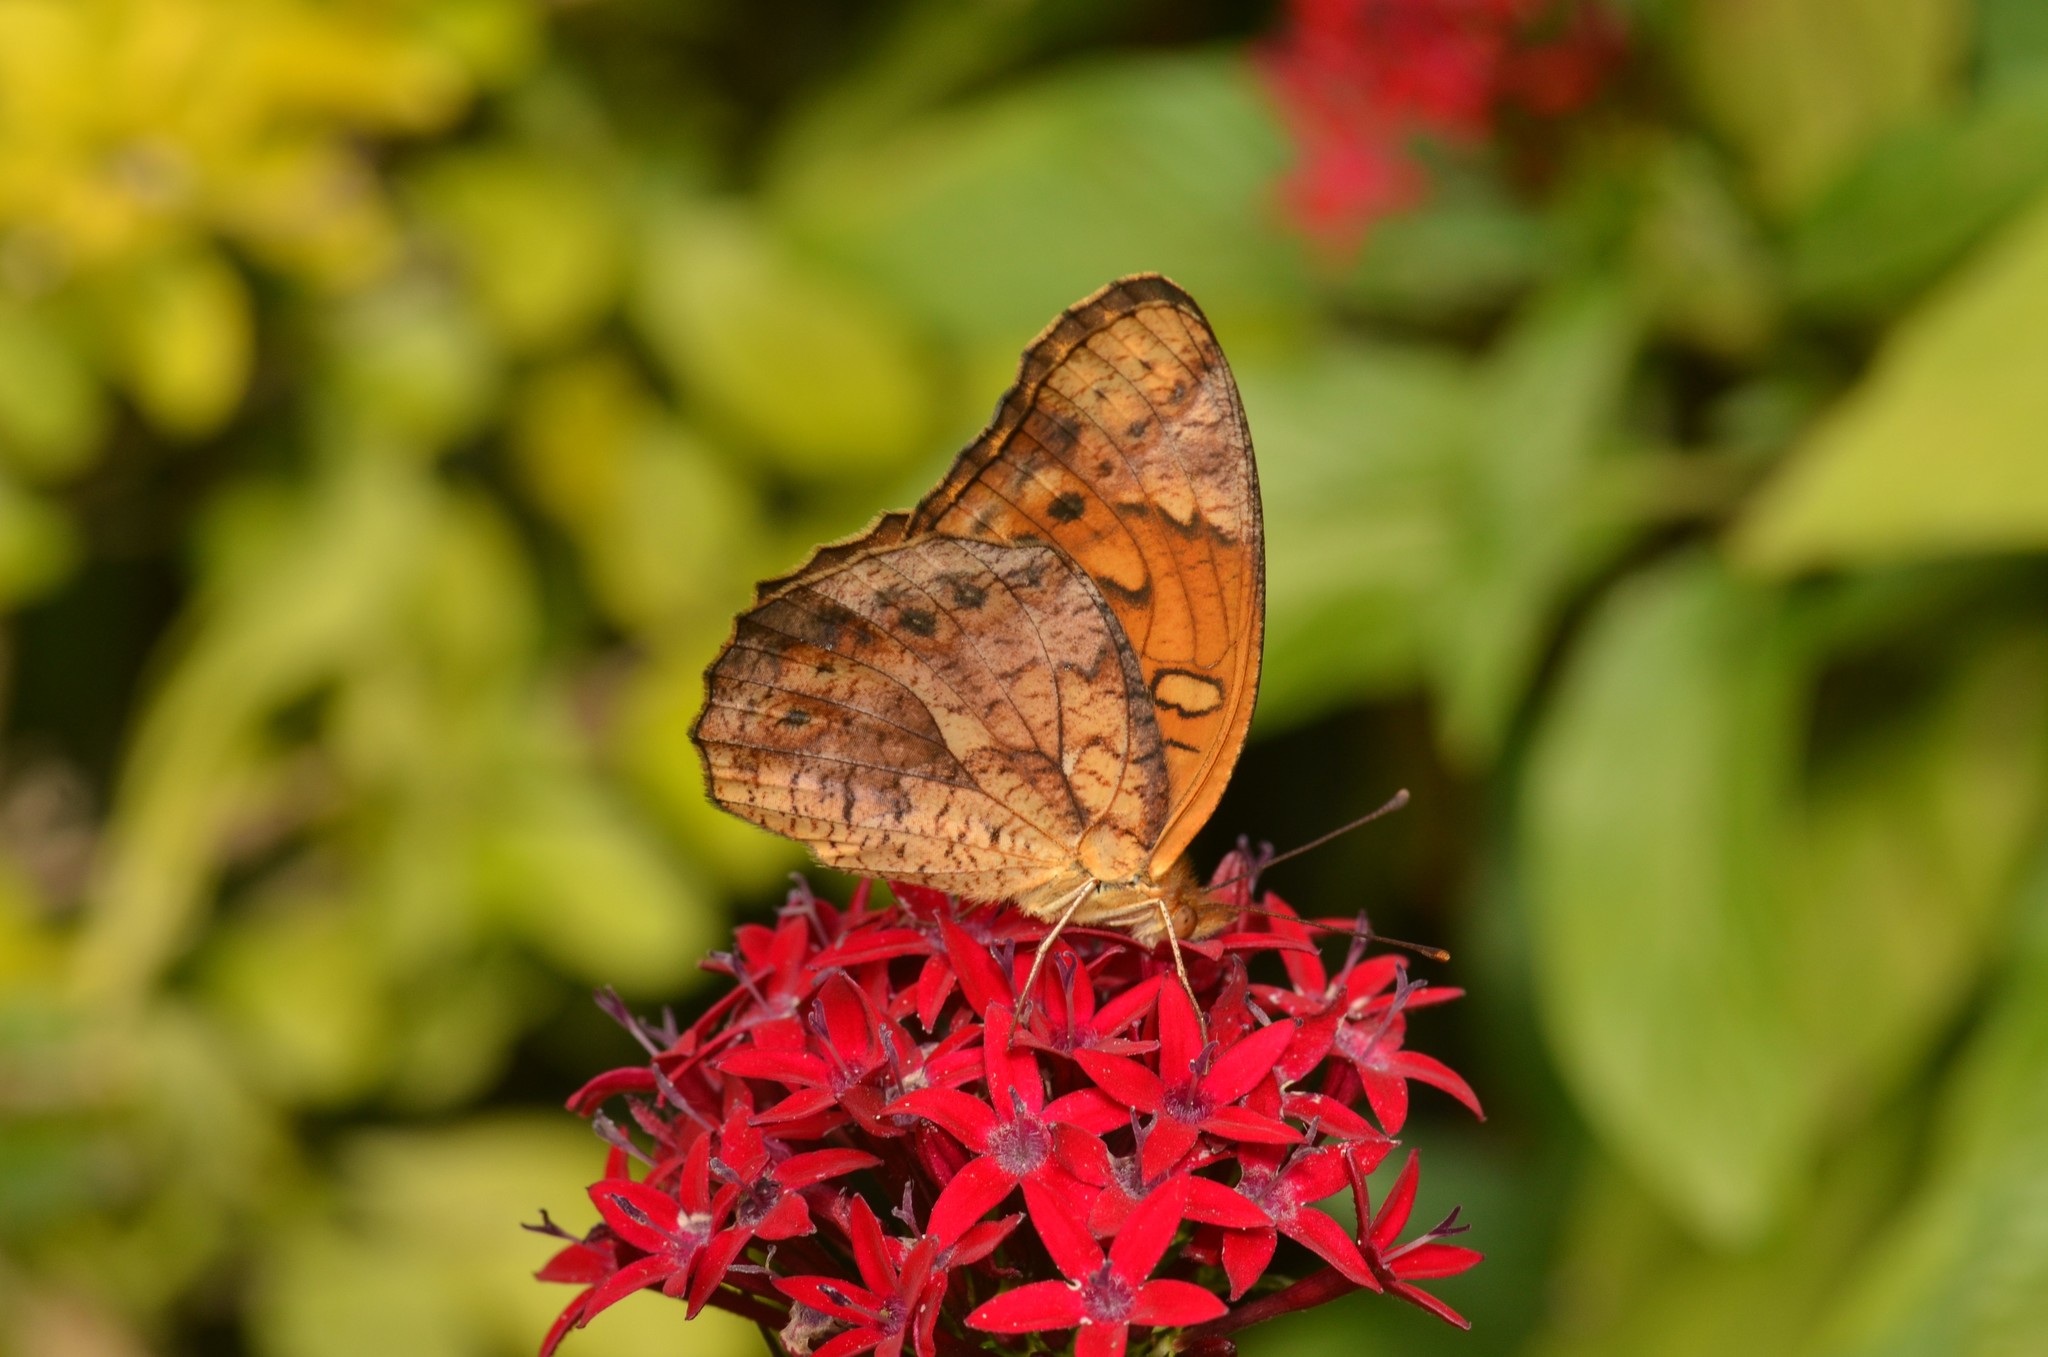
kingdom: Animalia
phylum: Arthropoda
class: Insecta
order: Lepidoptera
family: Nymphalidae
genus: Euptoieta
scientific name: Euptoieta hegesia
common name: Mexican fritillary
